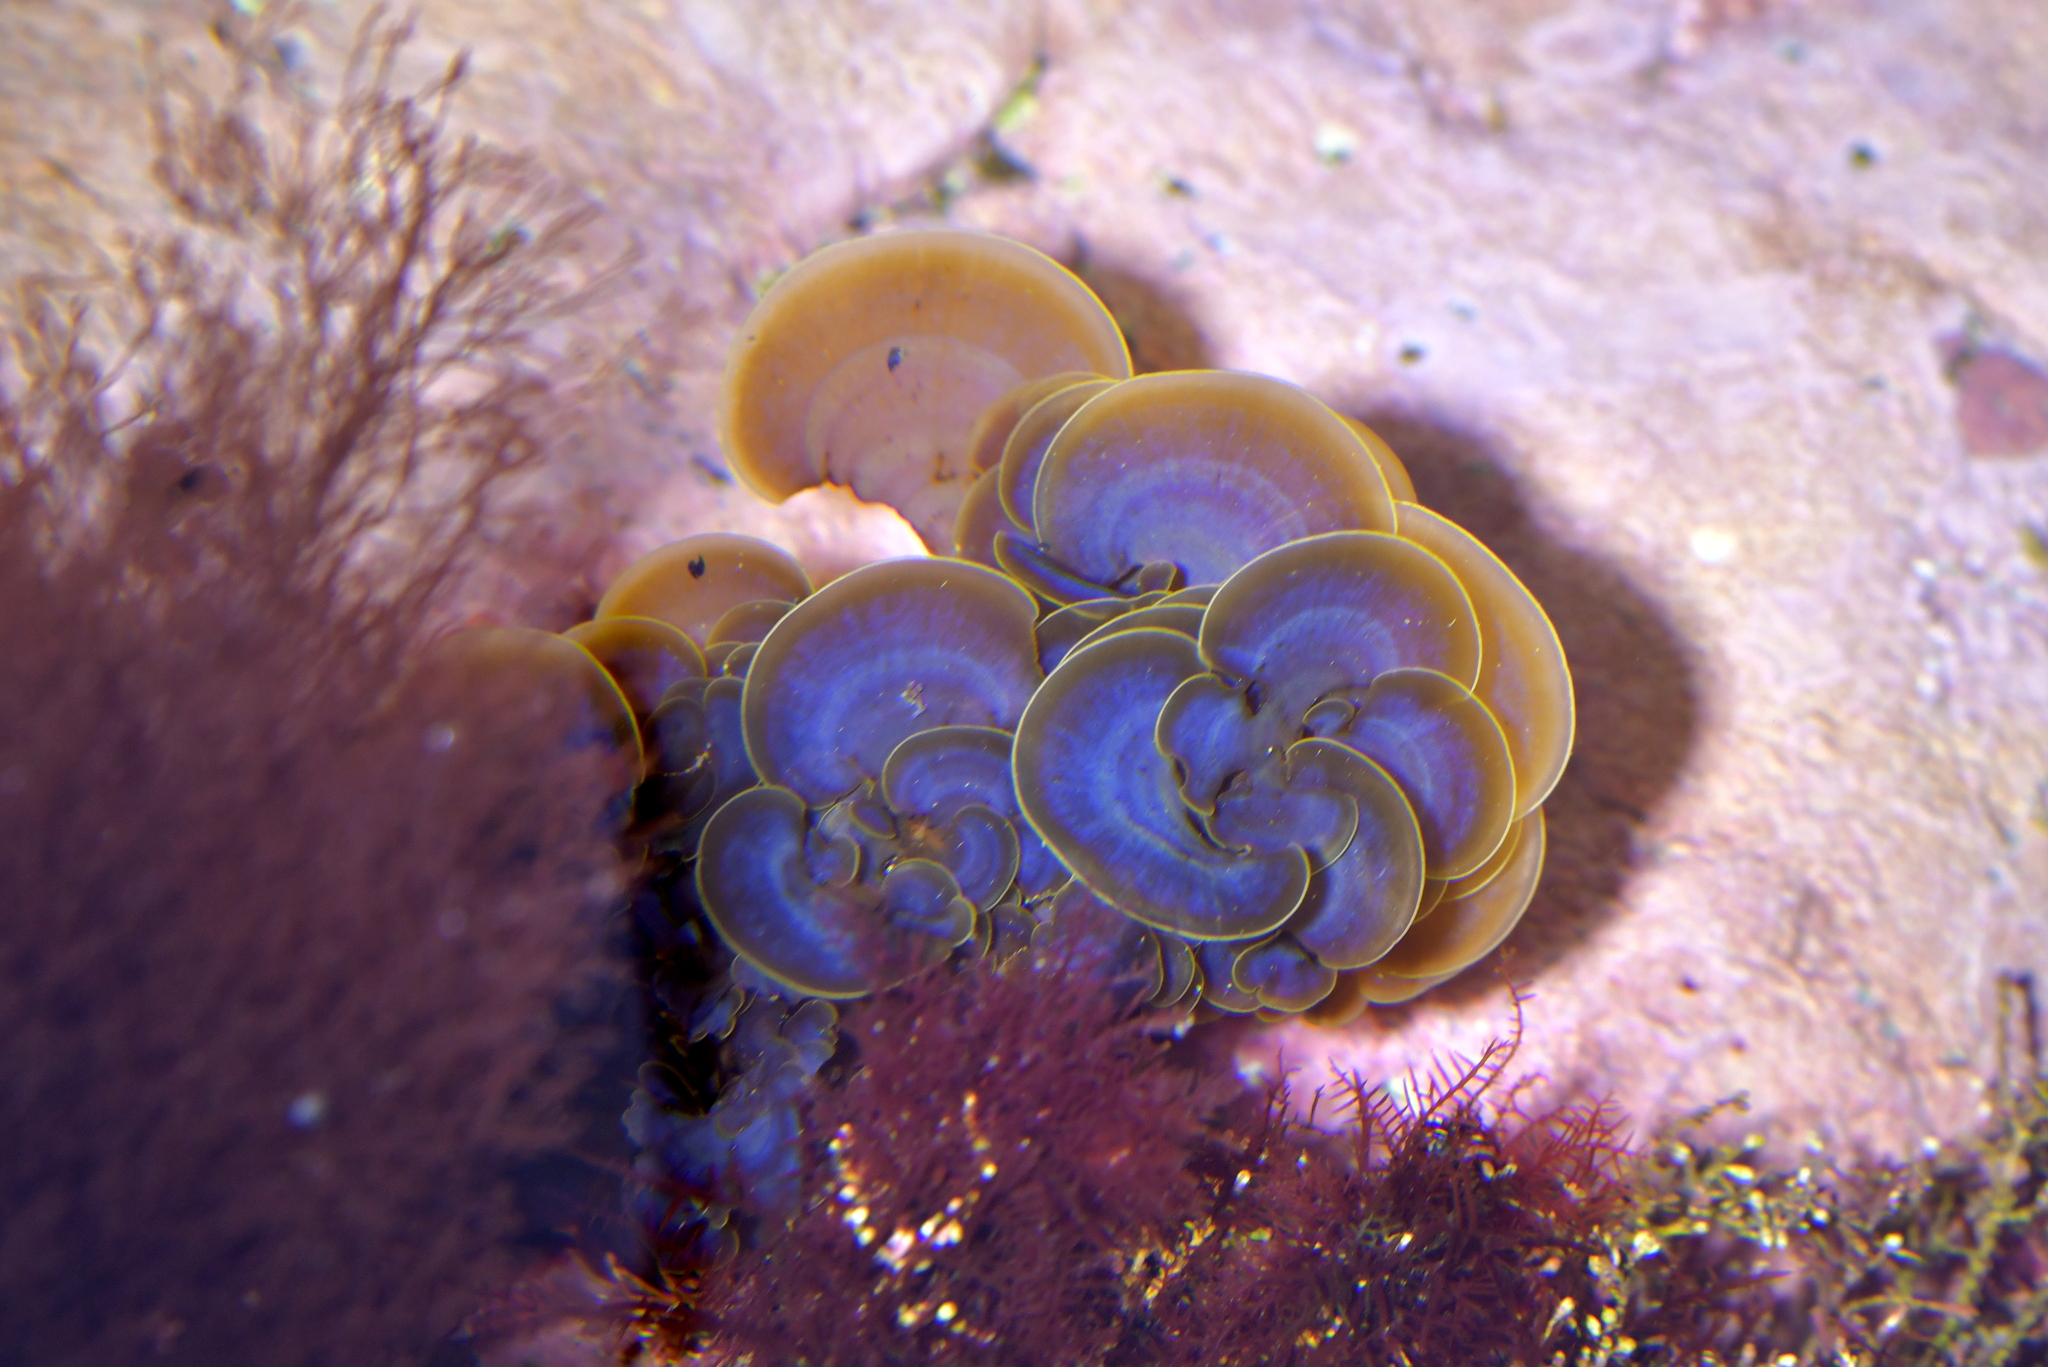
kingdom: Chromista
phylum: Ochrophyta
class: Phaeophyceae
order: Dictyotales
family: Dictyotaceae
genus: Distromium
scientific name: Distromium skottsbergii
